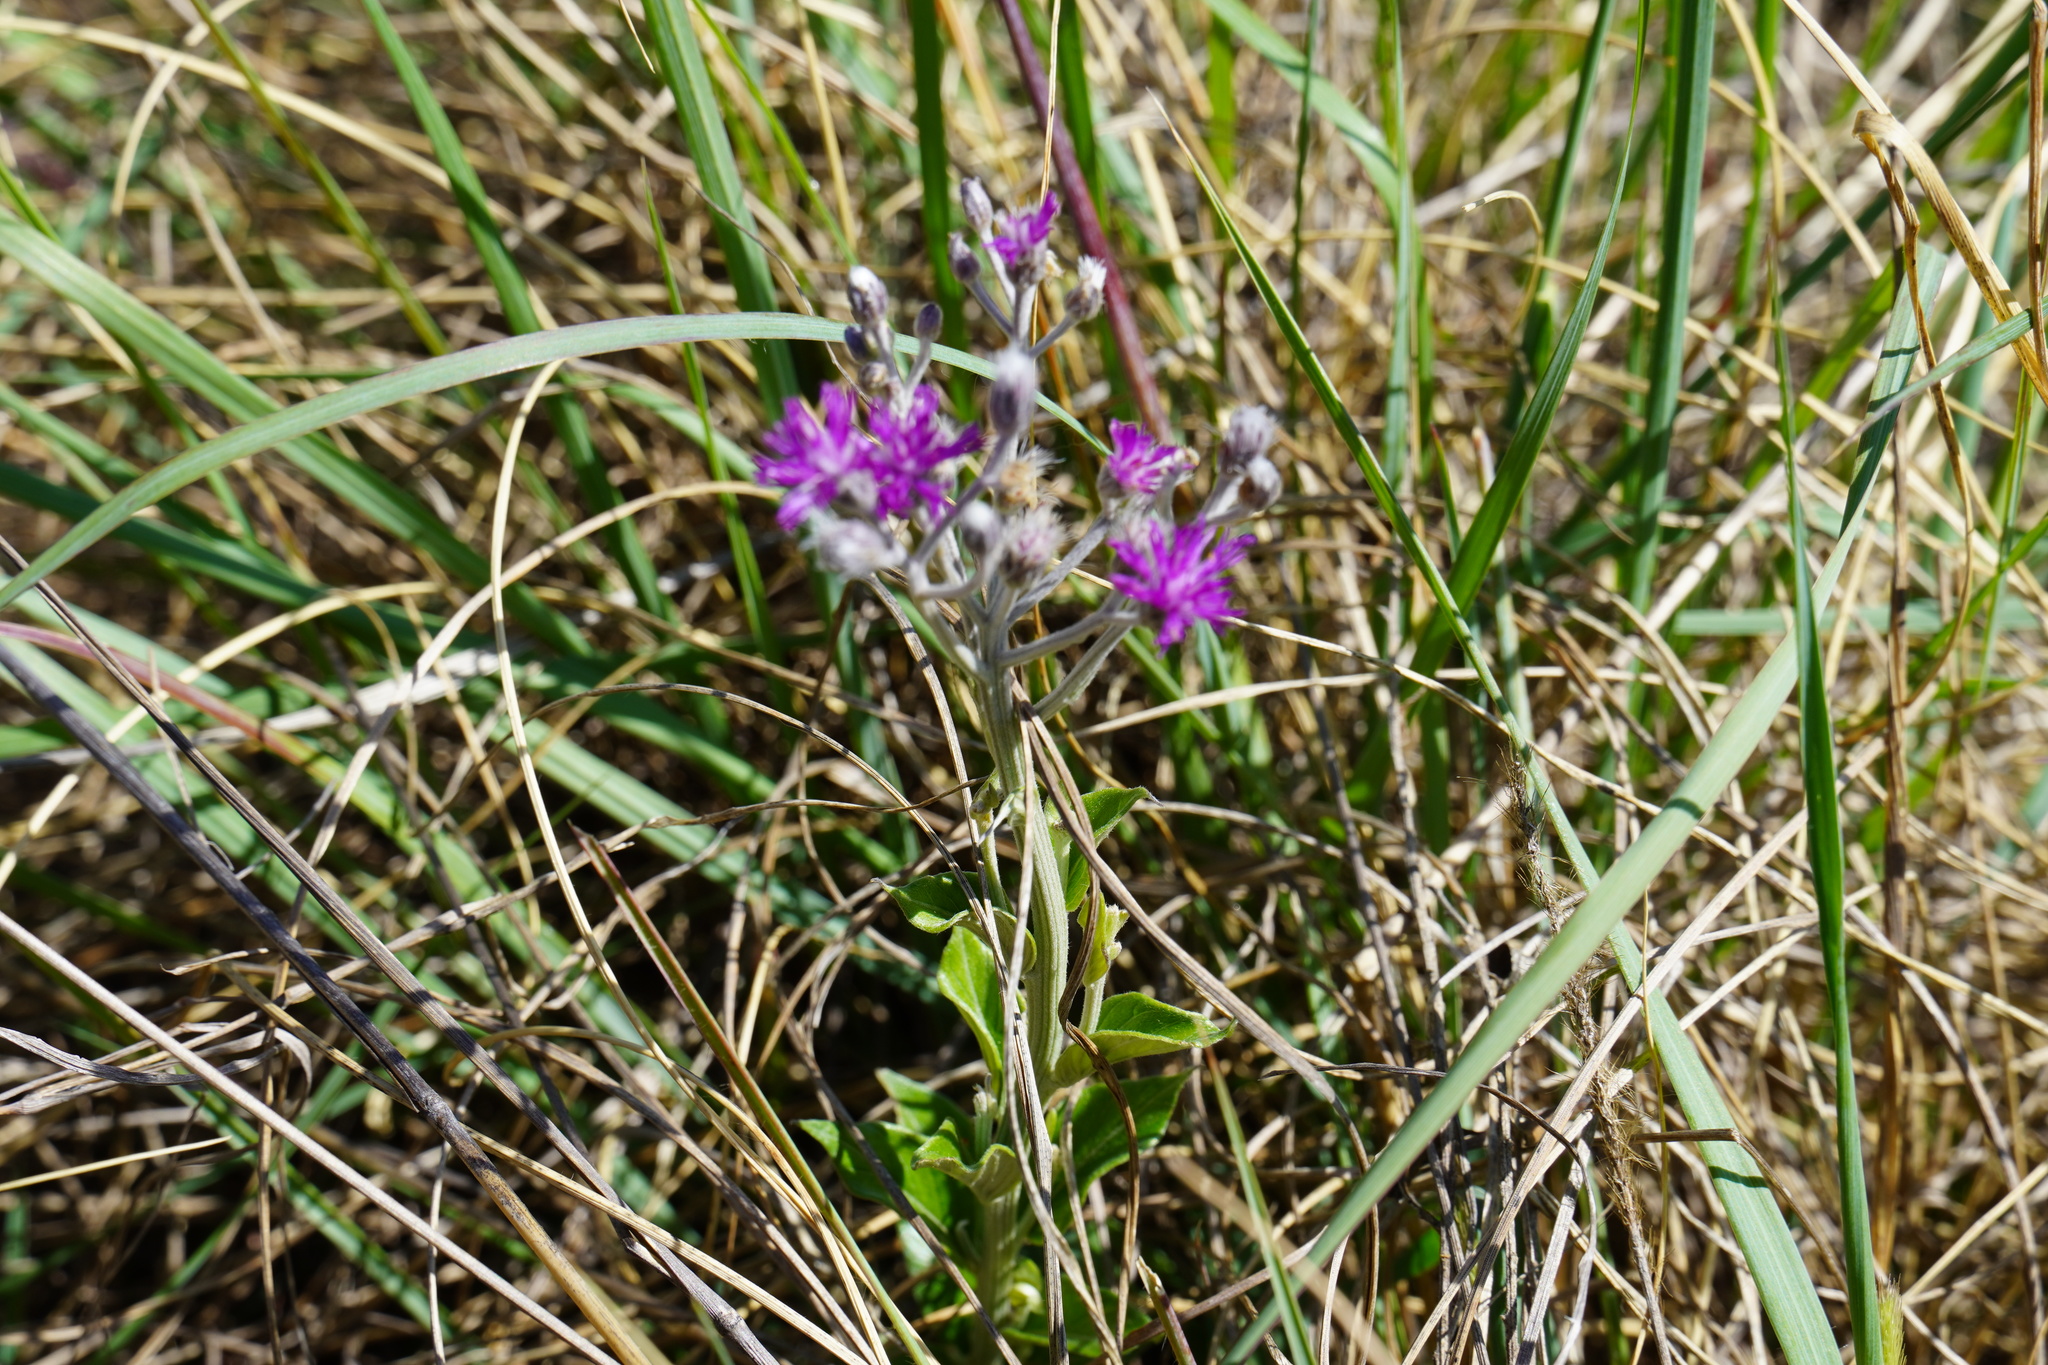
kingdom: Plantae
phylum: Tracheophyta
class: Magnoliopsida
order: Asterales
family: Asteraceae
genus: Hilliardiella
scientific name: Hilliardiella oligocephala
